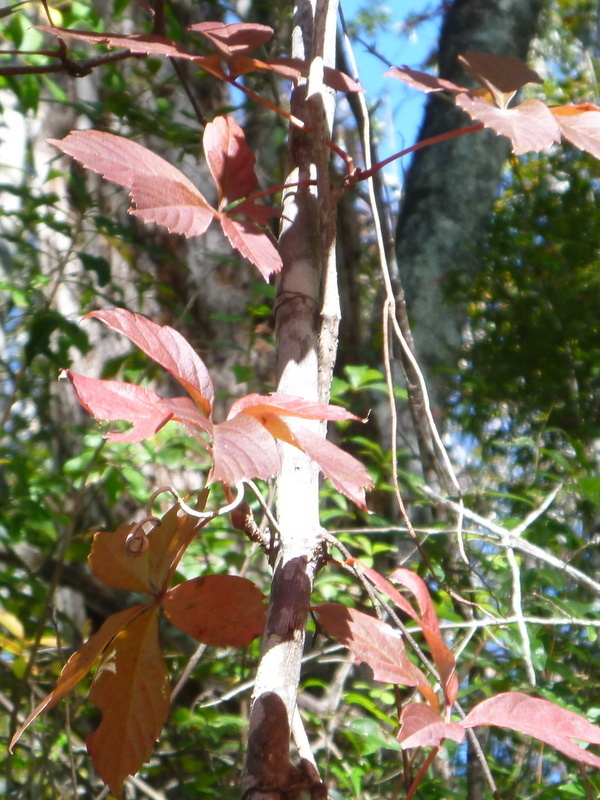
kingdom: Plantae
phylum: Tracheophyta
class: Magnoliopsida
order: Vitales
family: Vitaceae
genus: Parthenocissus
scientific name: Parthenocissus quinquefolia
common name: Virginia-creeper
